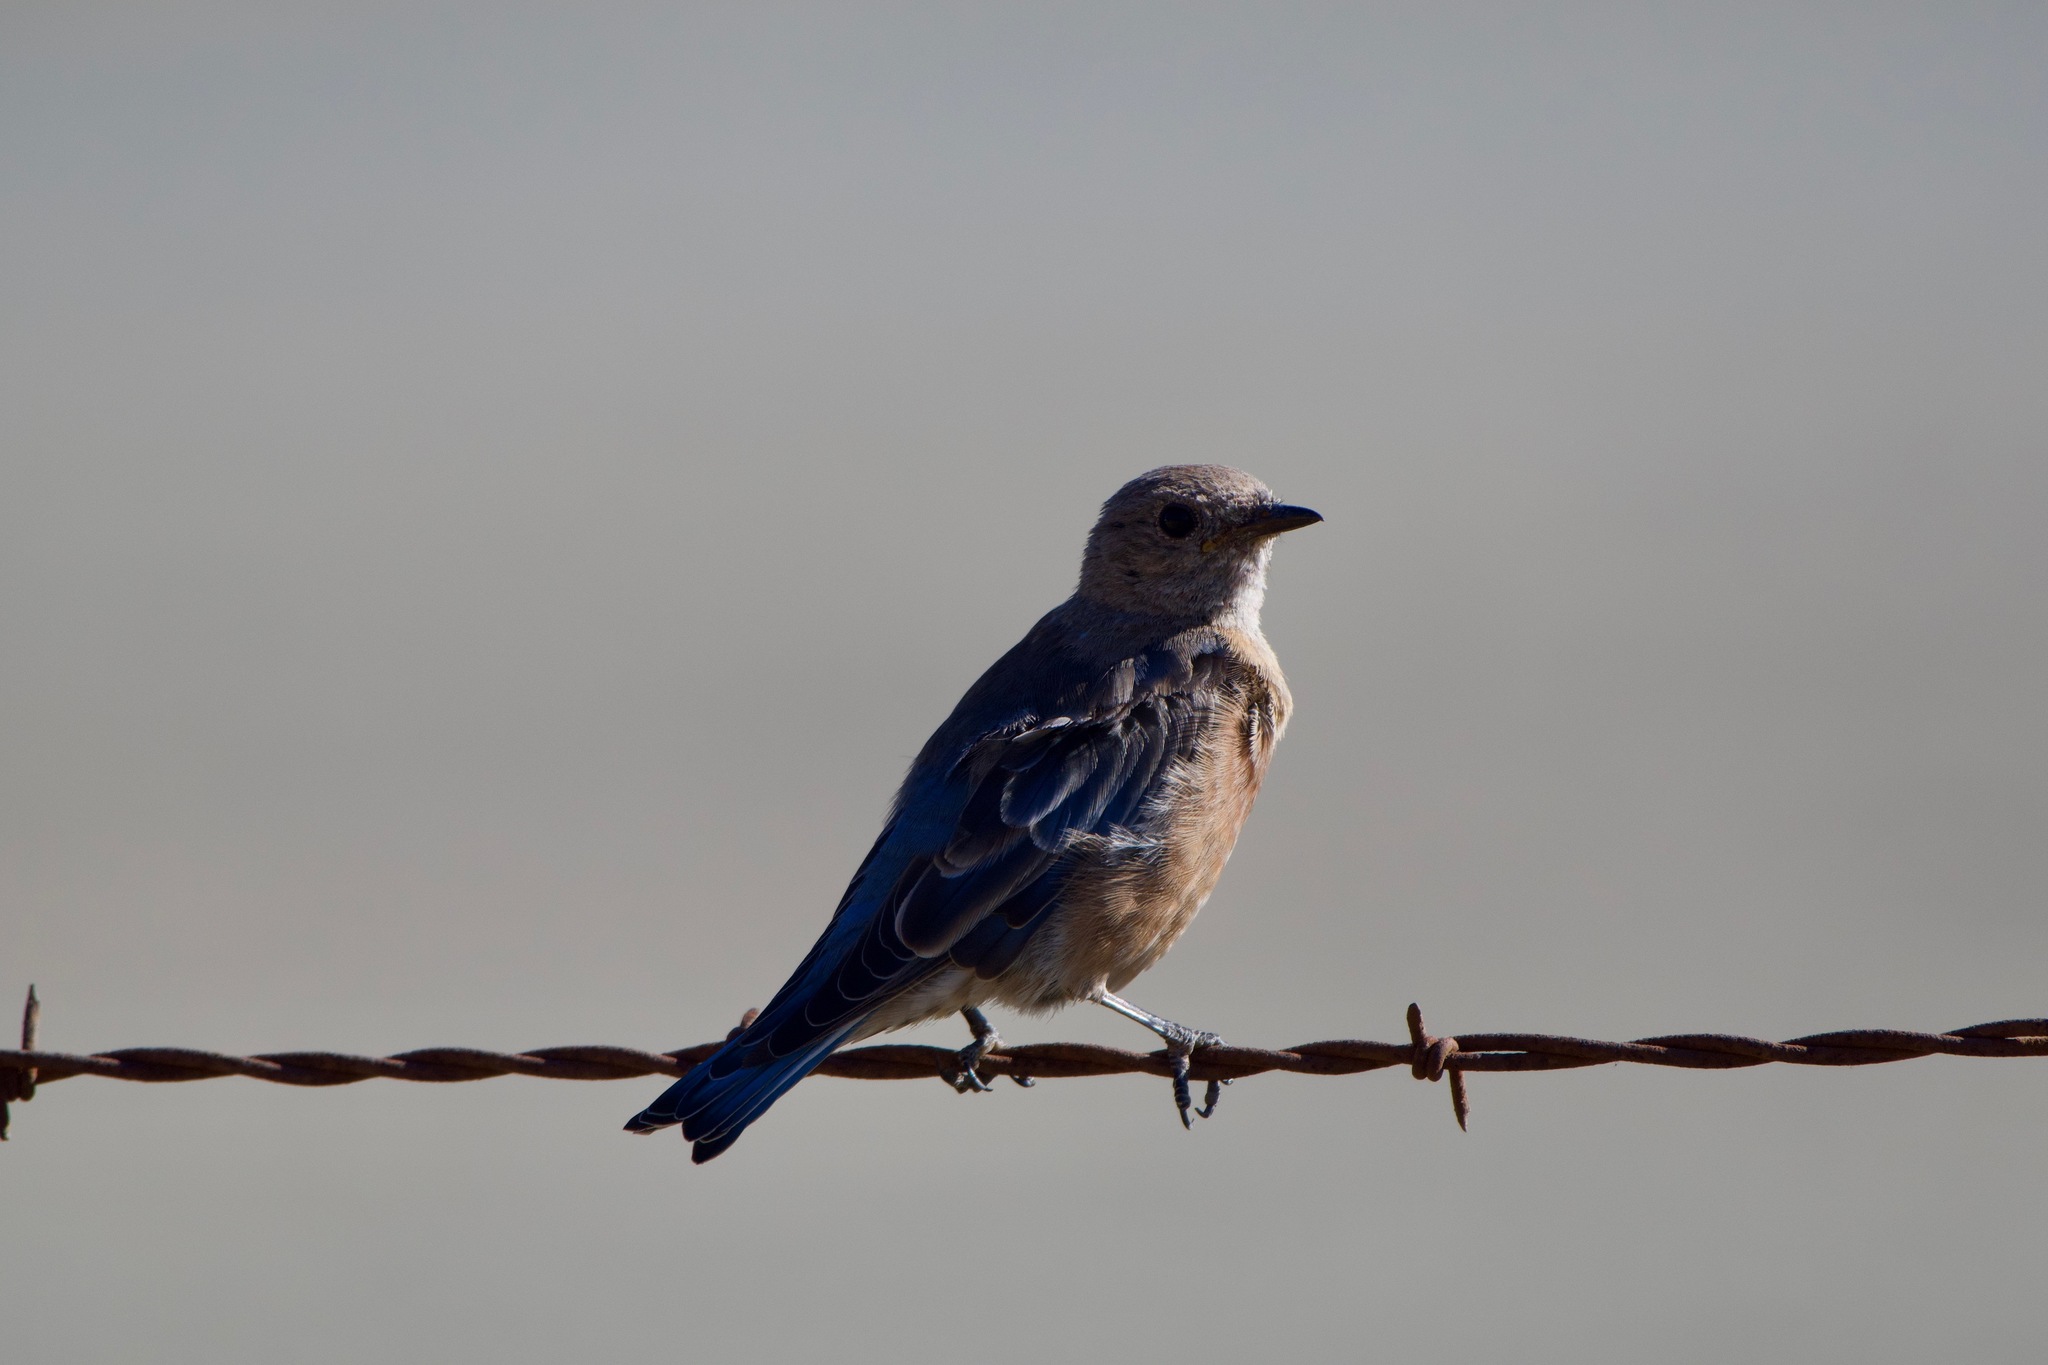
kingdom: Animalia
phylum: Chordata
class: Aves
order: Passeriformes
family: Turdidae
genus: Sialia
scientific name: Sialia mexicana
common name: Western bluebird
